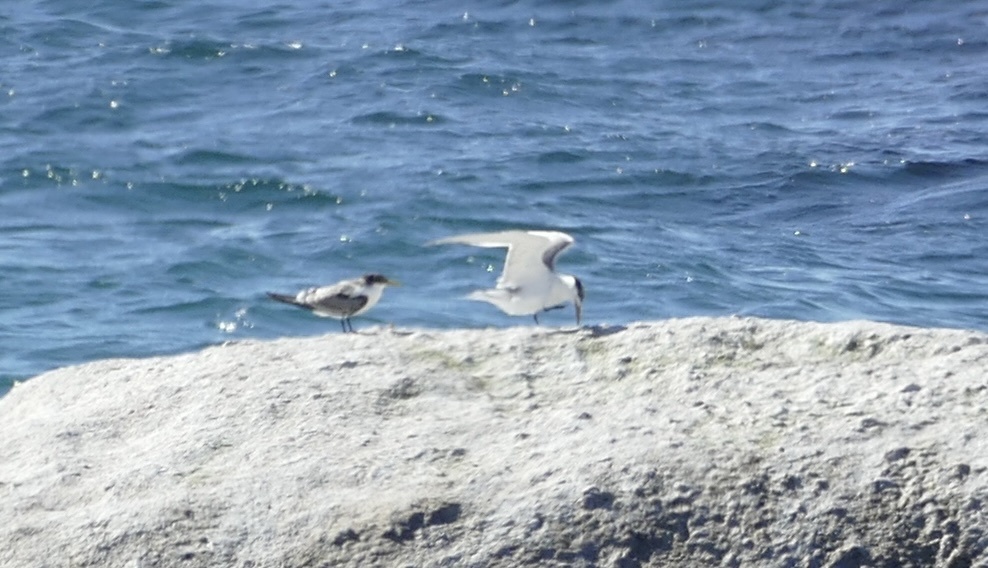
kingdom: Animalia
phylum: Chordata
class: Aves
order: Charadriiformes
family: Laridae
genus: Thalasseus
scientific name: Thalasseus bergii
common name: Greater crested tern
